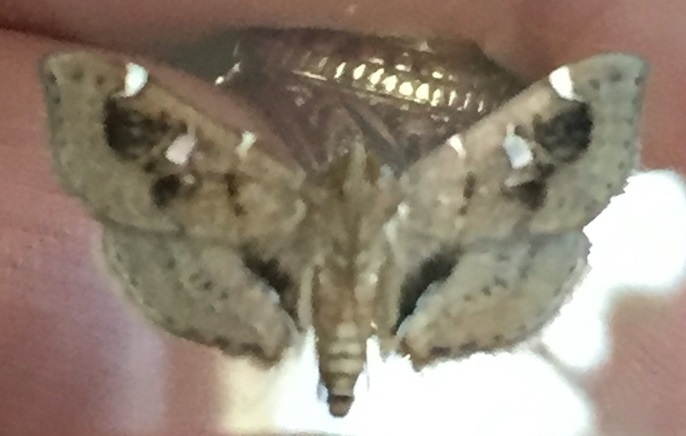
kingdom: Animalia
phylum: Arthropoda
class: Insecta
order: Lepidoptera
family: Crambidae
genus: Lamprosema
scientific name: Lamprosema baracoalis
